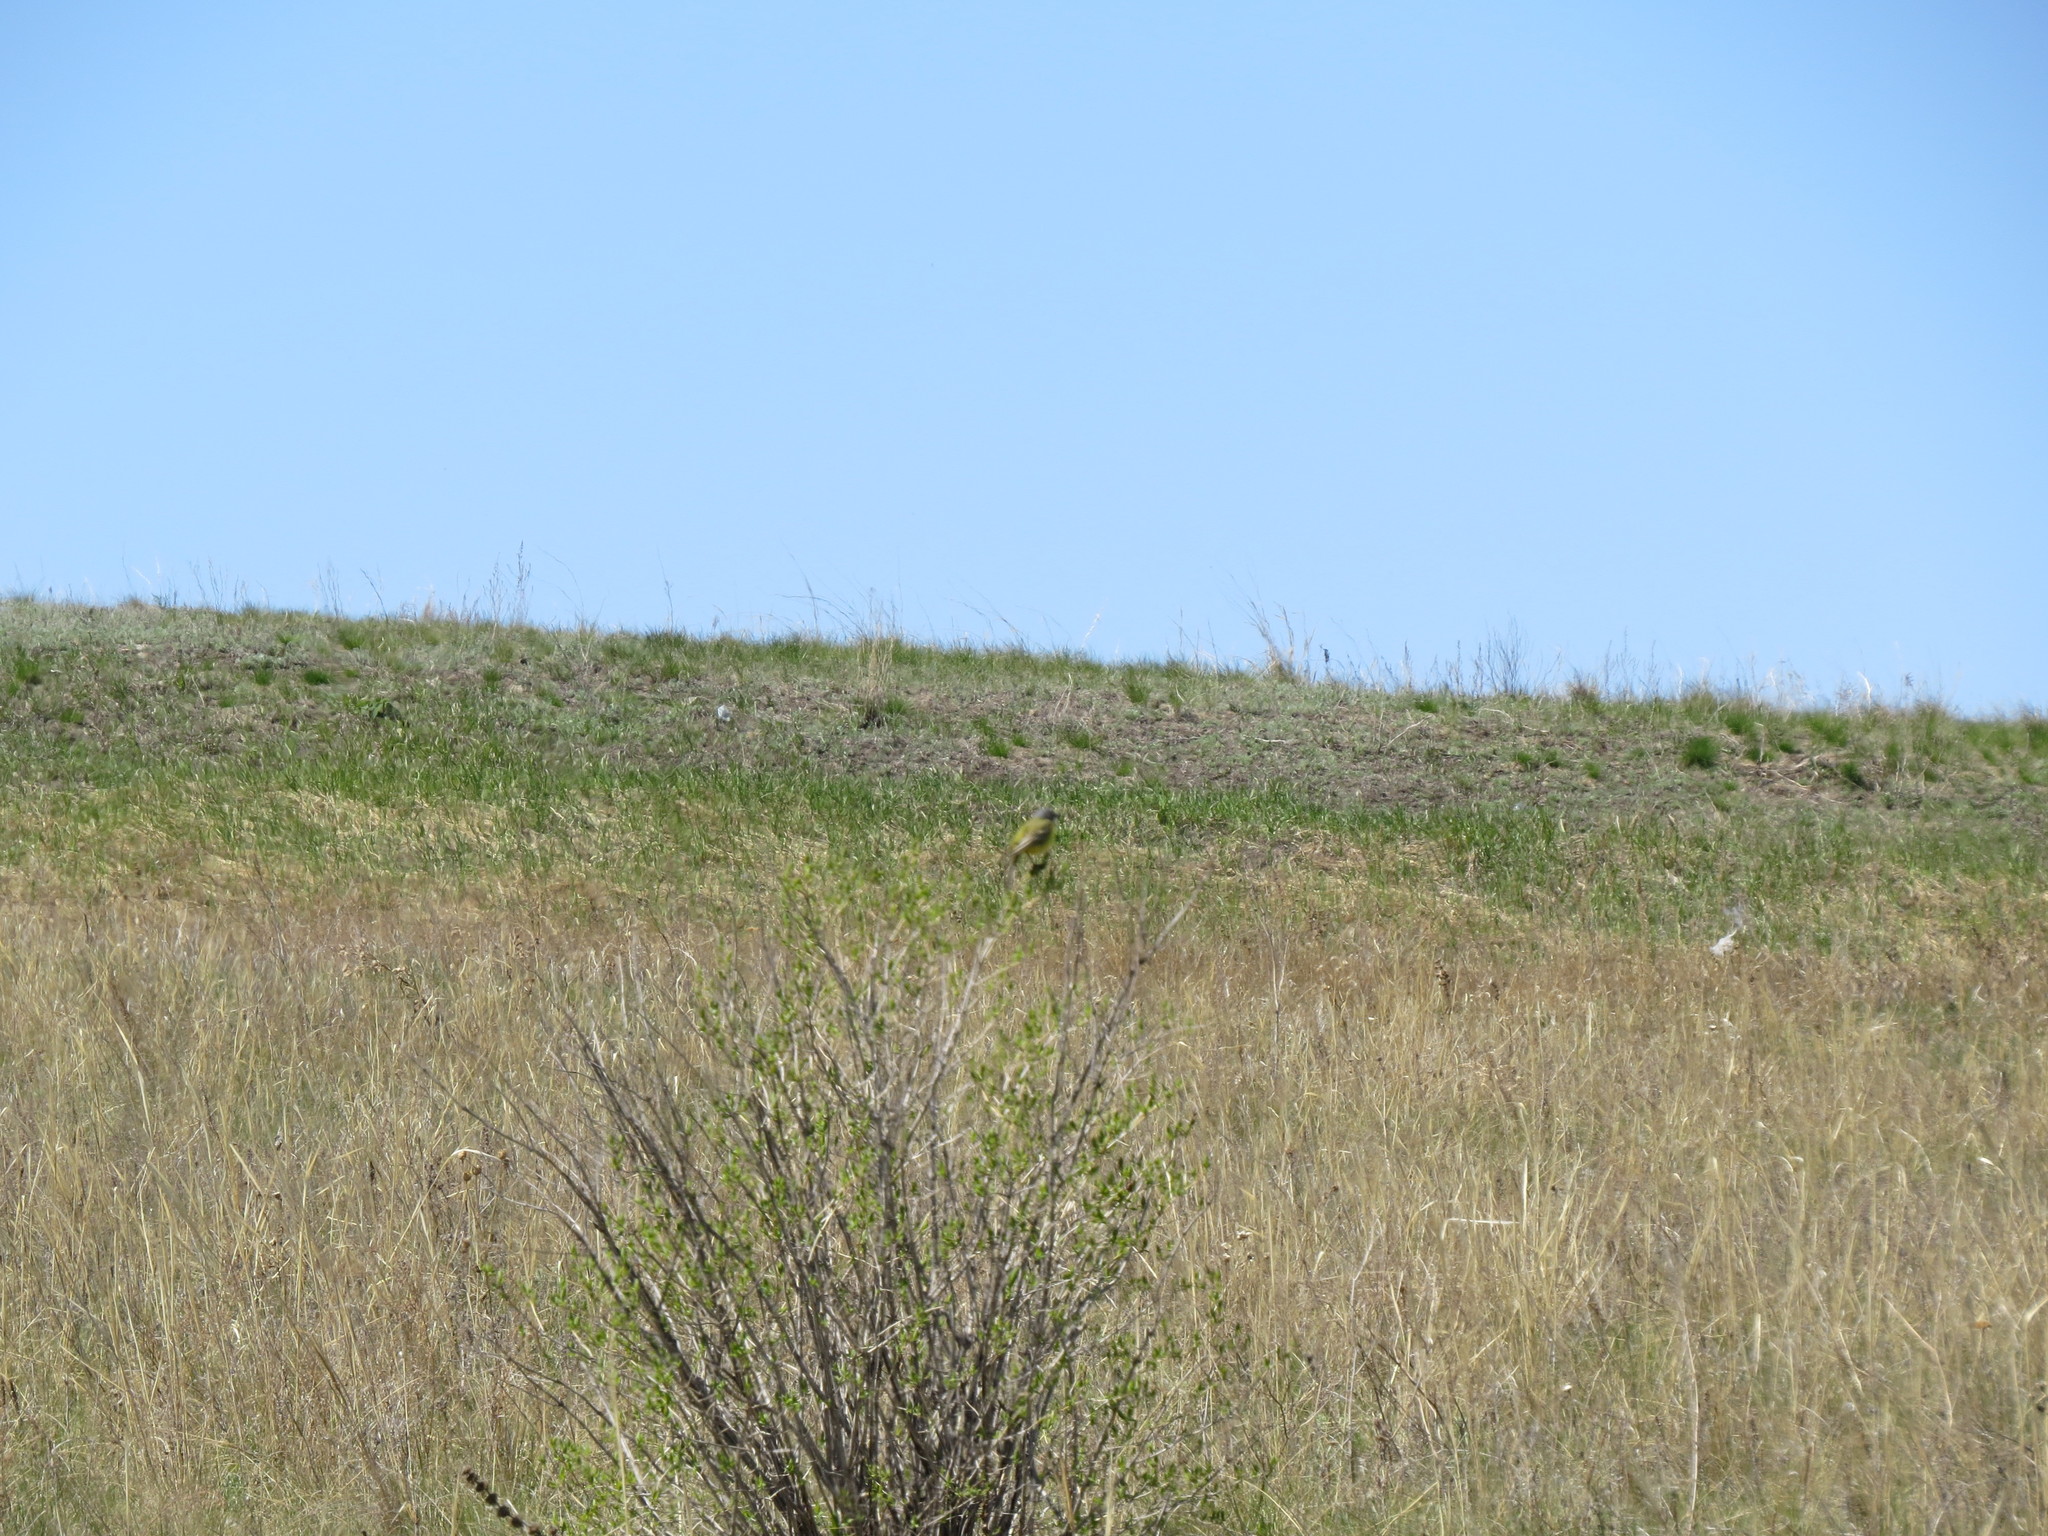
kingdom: Animalia
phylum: Chordata
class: Aves
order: Passeriformes
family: Motacillidae
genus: Motacilla
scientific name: Motacilla flava
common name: Western yellow wagtail
